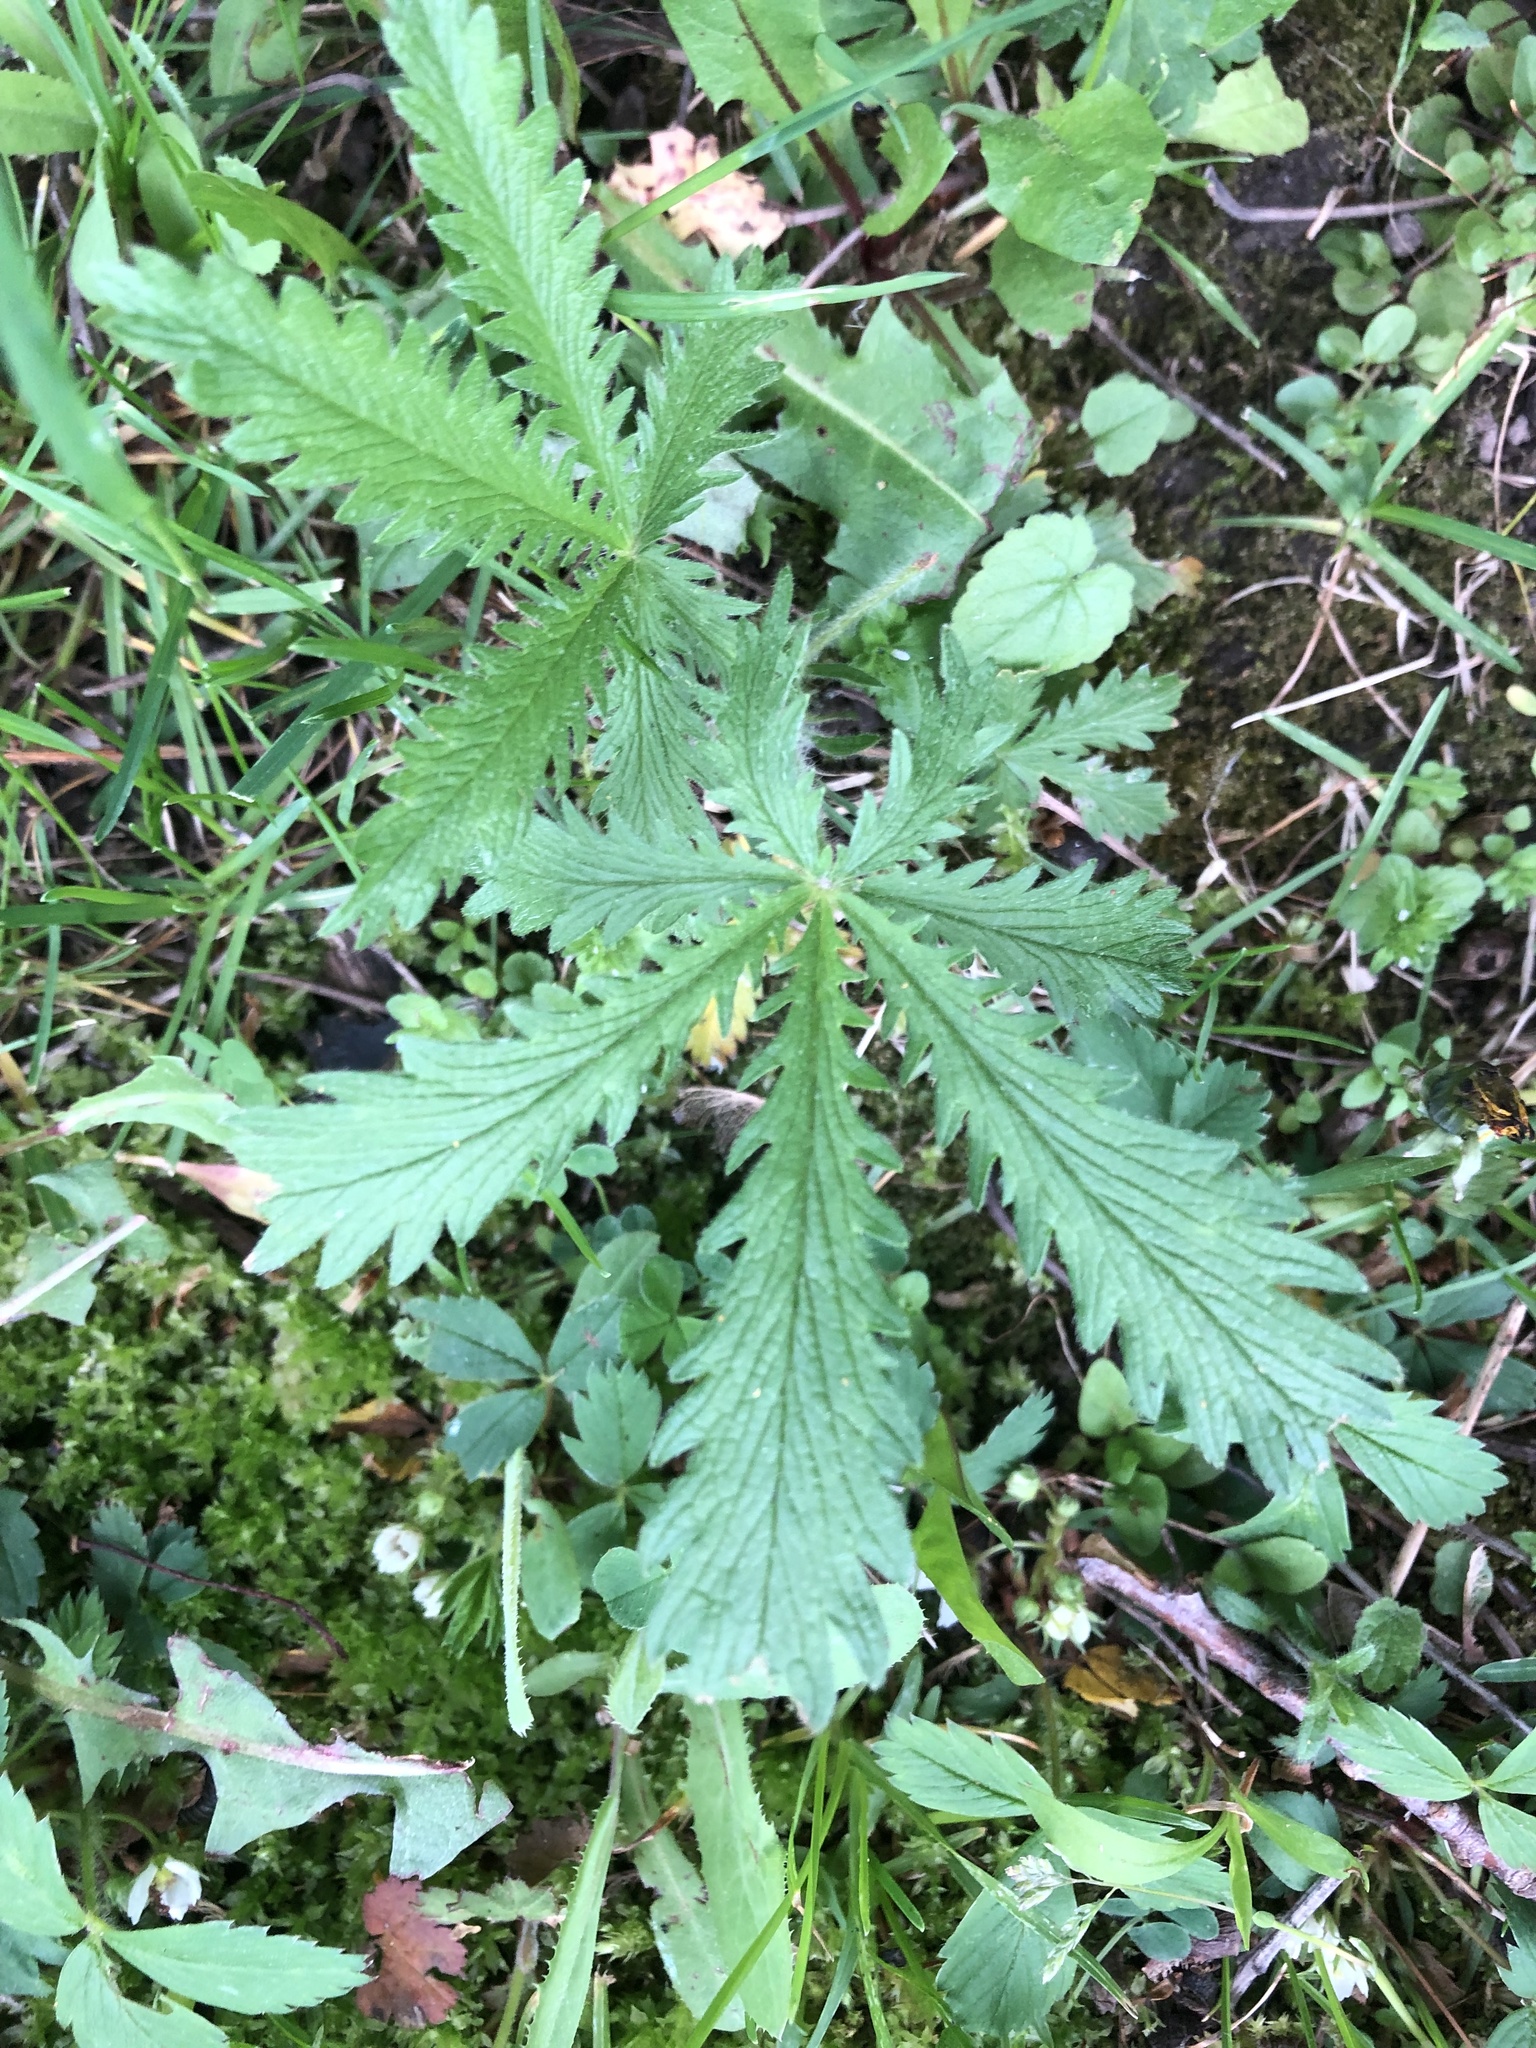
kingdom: Plantae
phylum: Tracheophyta
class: Magnoliopsida
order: Rosales
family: Rosaceae
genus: Potentilla
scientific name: Potentilla recta
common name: Sulphur cinquefoil
